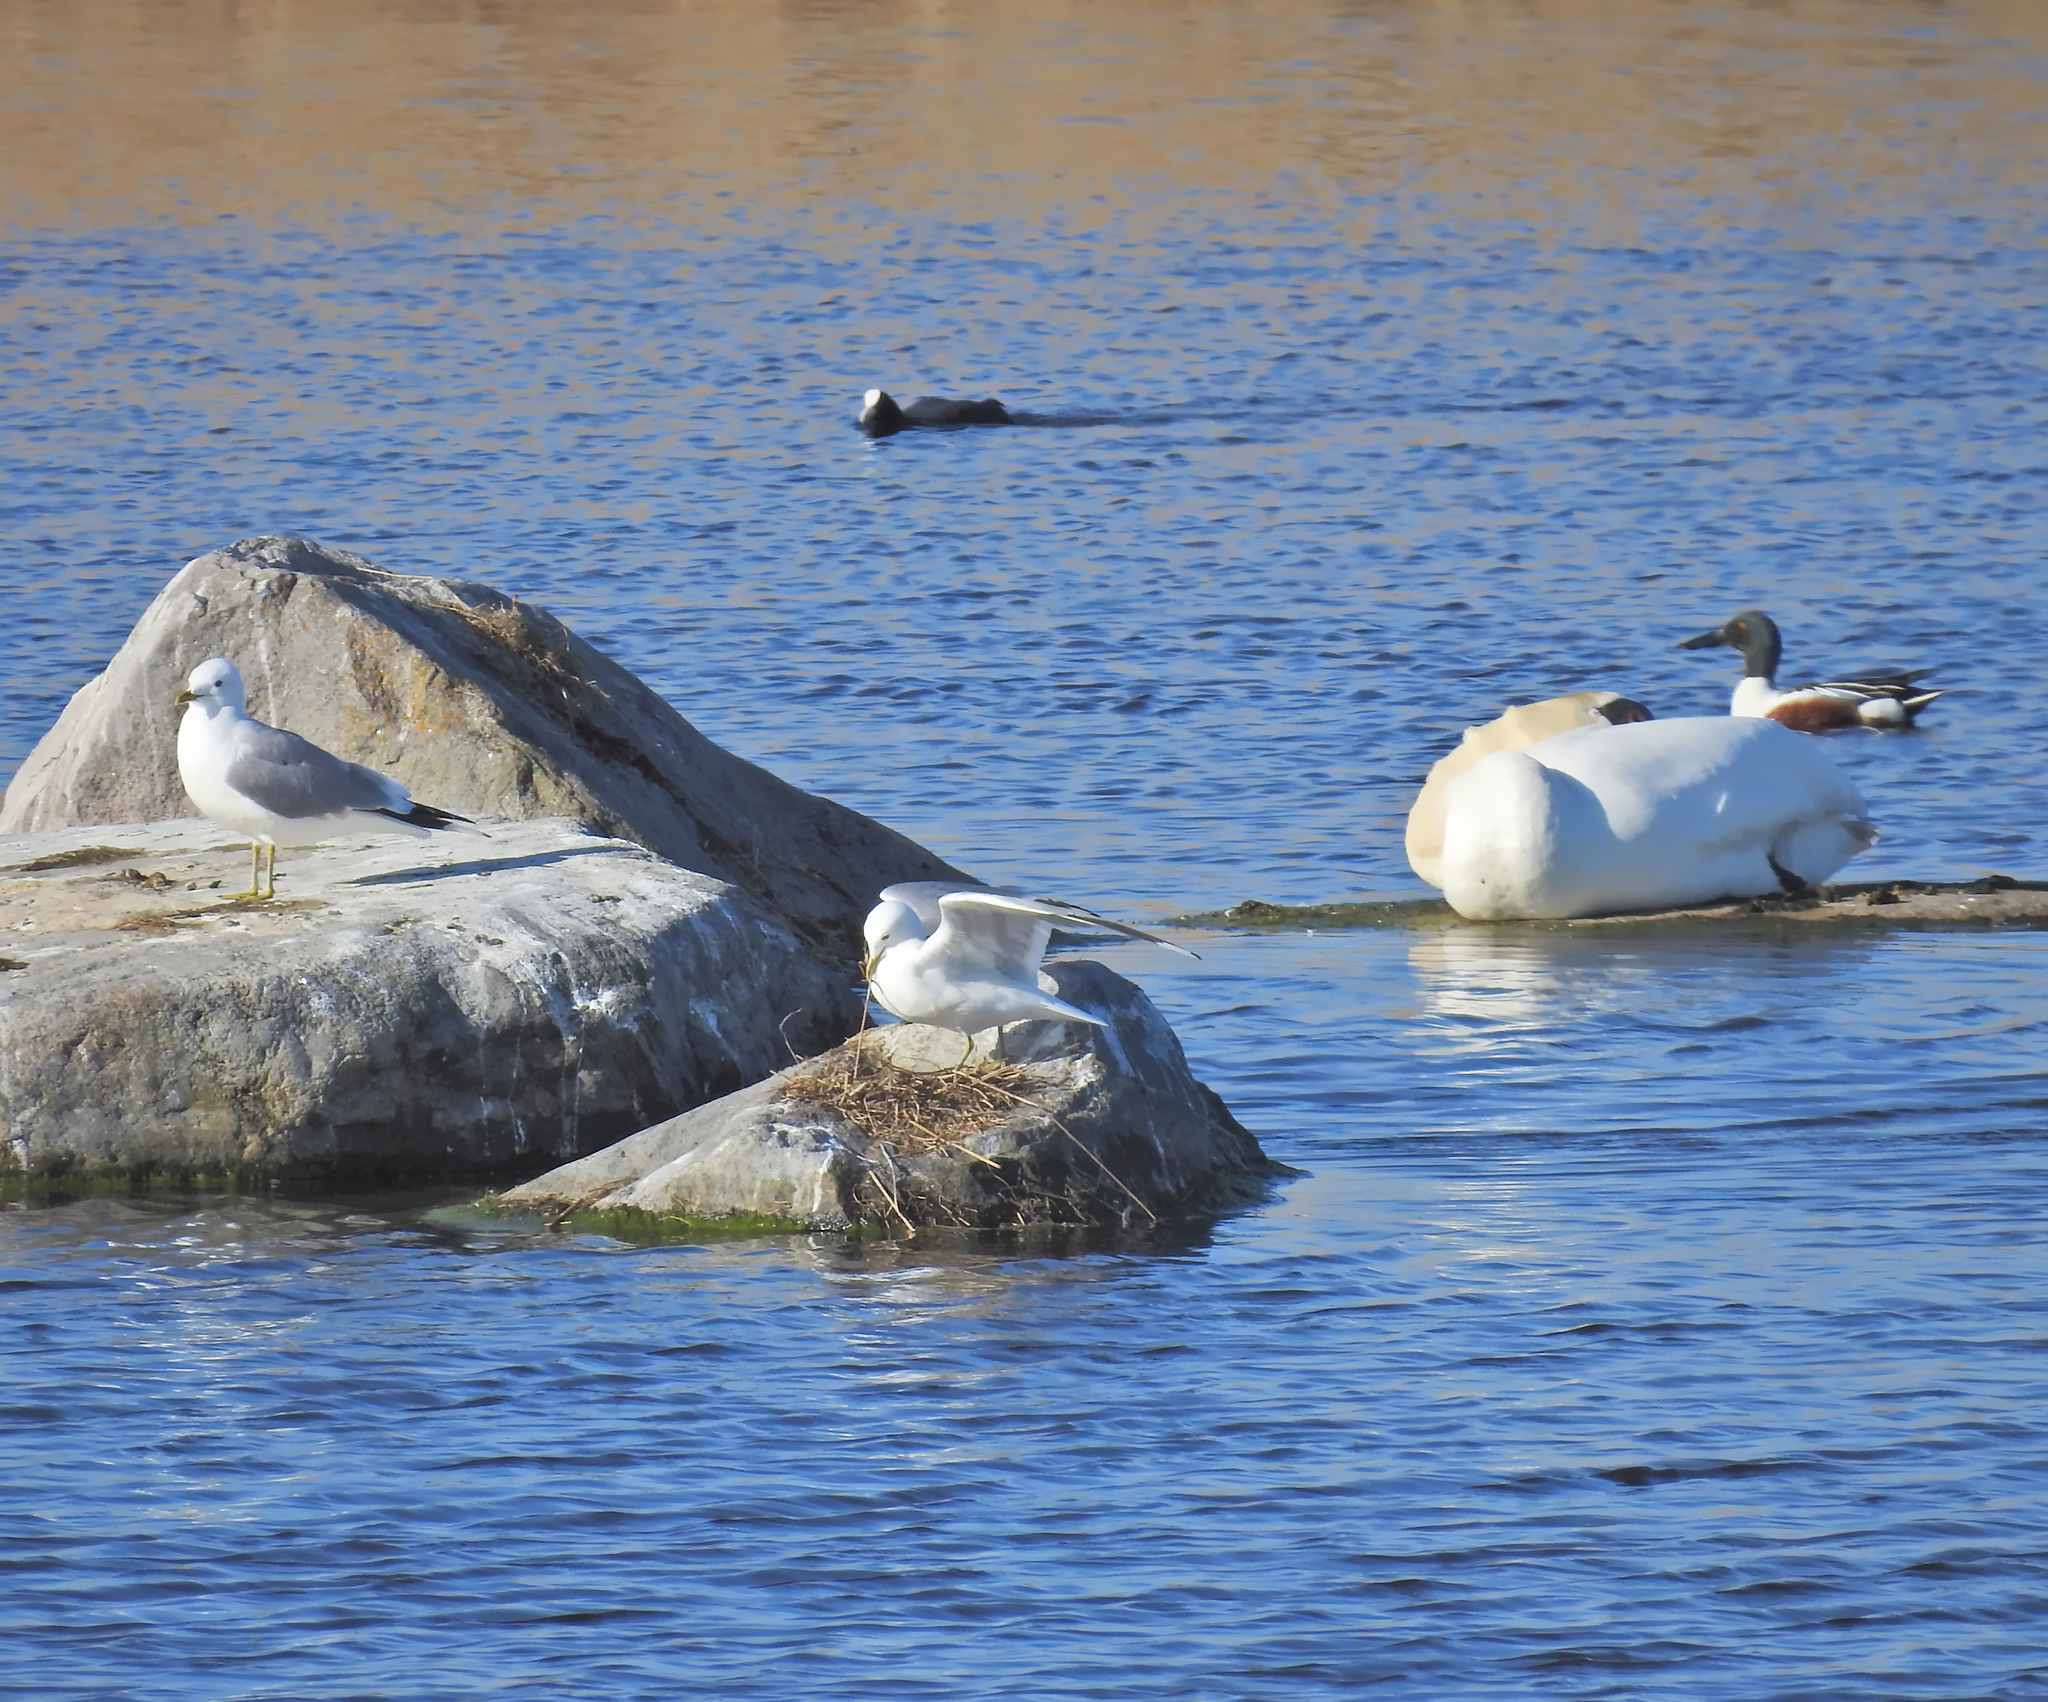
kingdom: Animalia
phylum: Chordata
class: Aves
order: Anseriformes
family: Anatidae
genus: Cygnus
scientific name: Cygnus olor
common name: Mute swan
